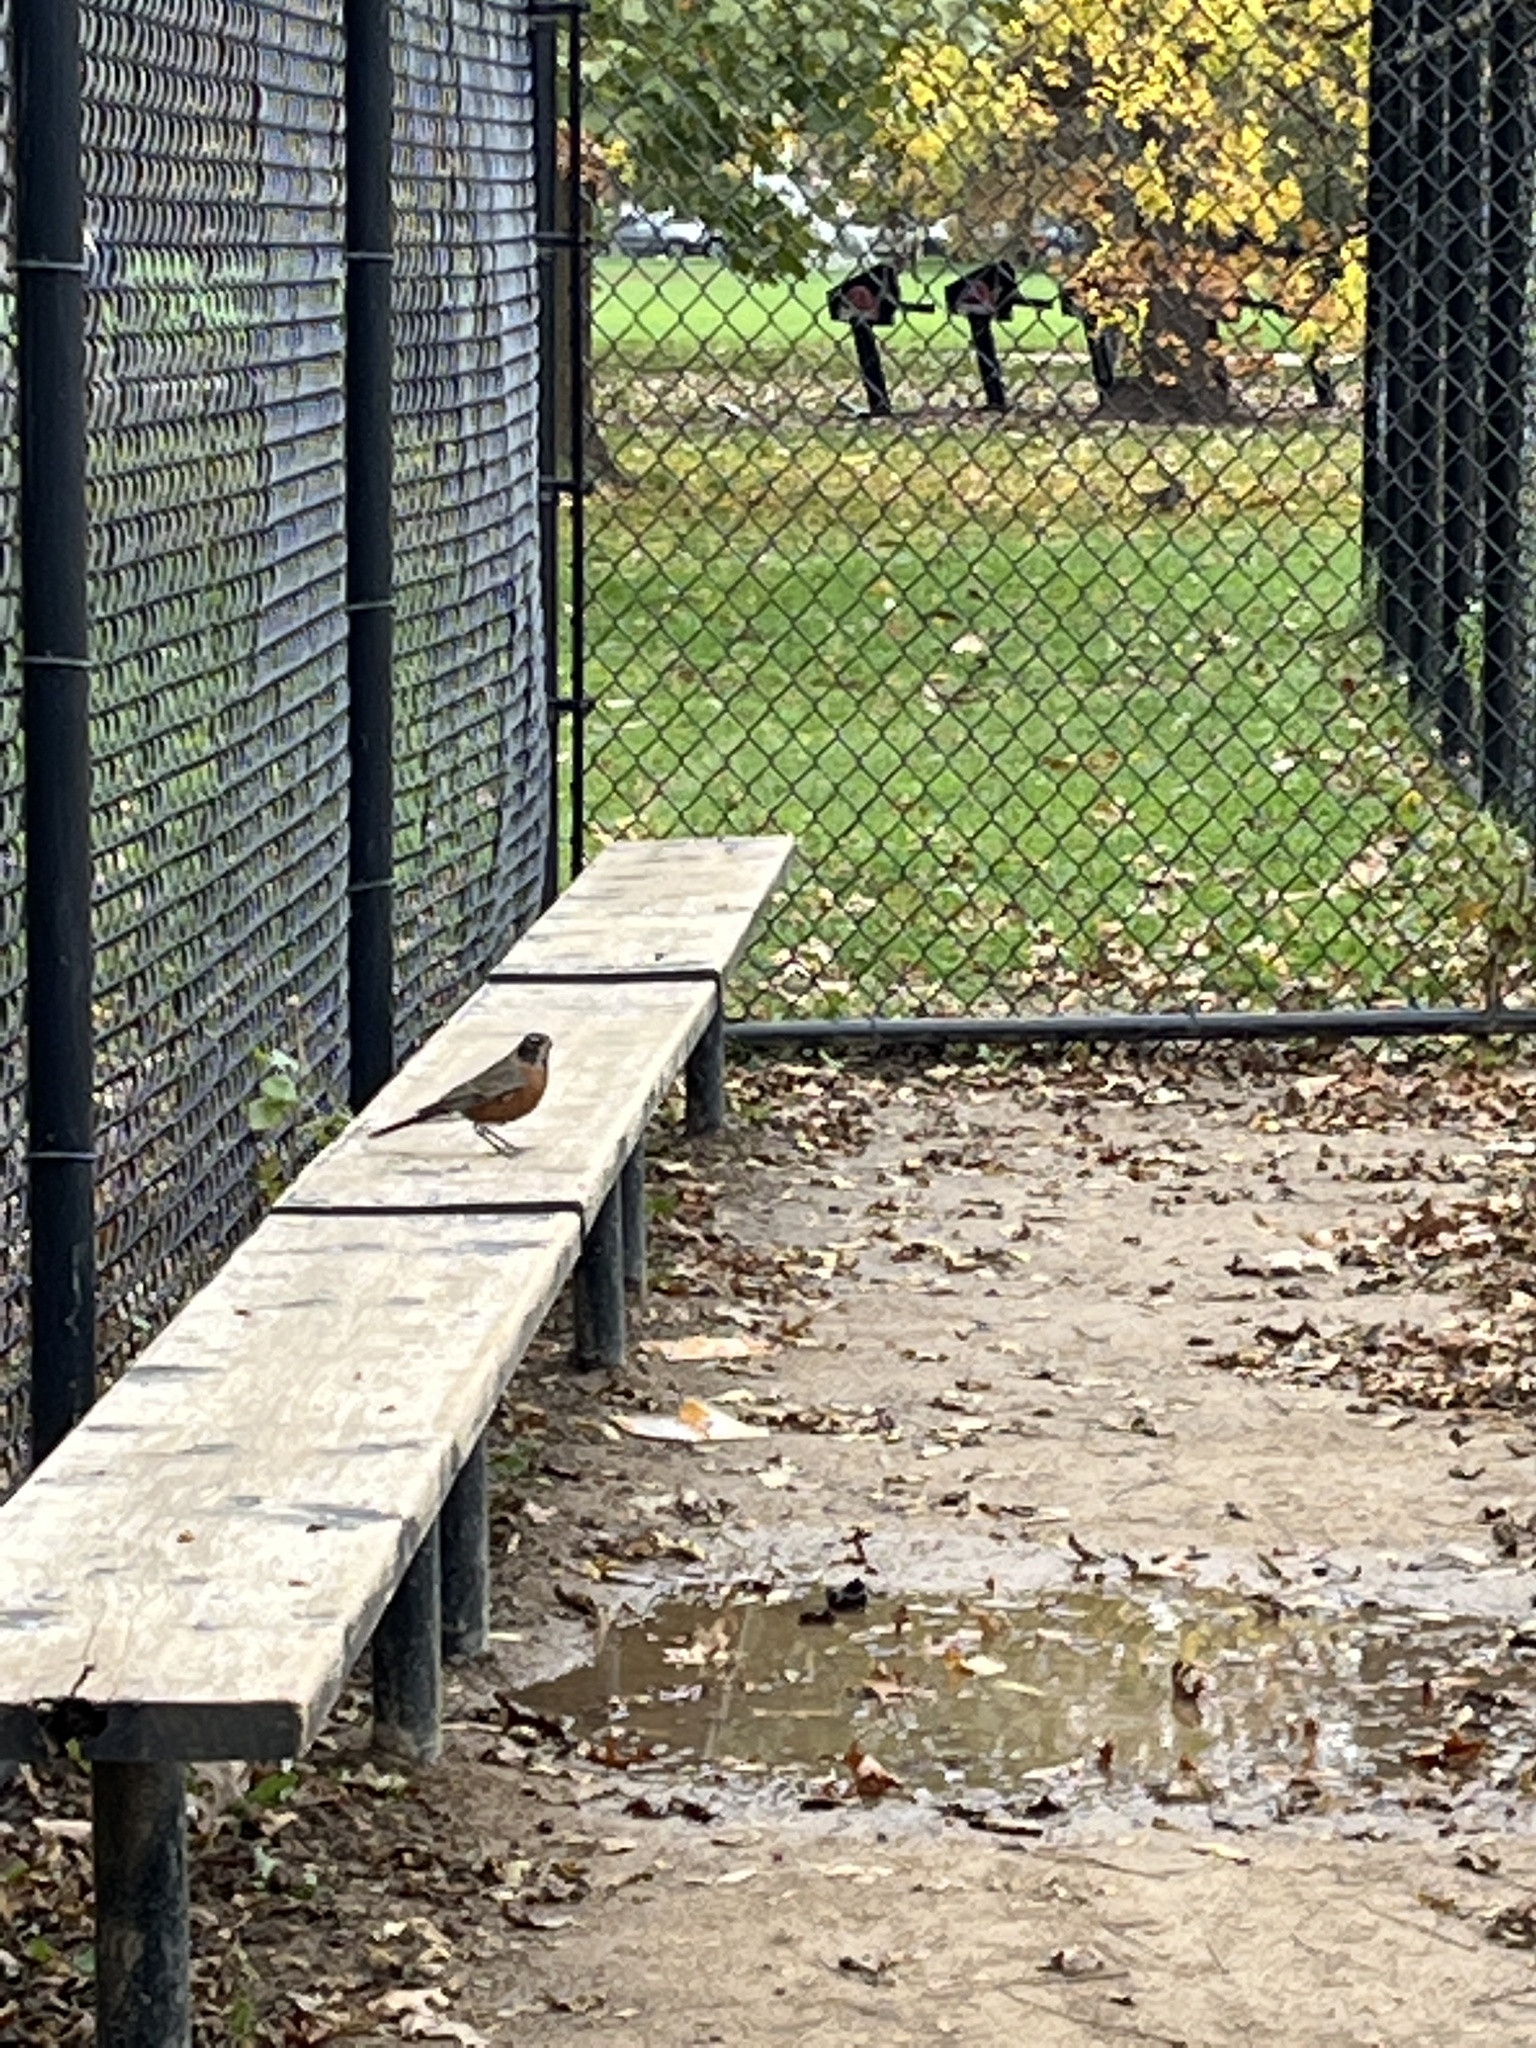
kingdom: Animalia
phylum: Chordata
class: Aves
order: Passeriformes
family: Turdidae
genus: Turdus
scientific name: Turdus migratorius
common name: American robin
